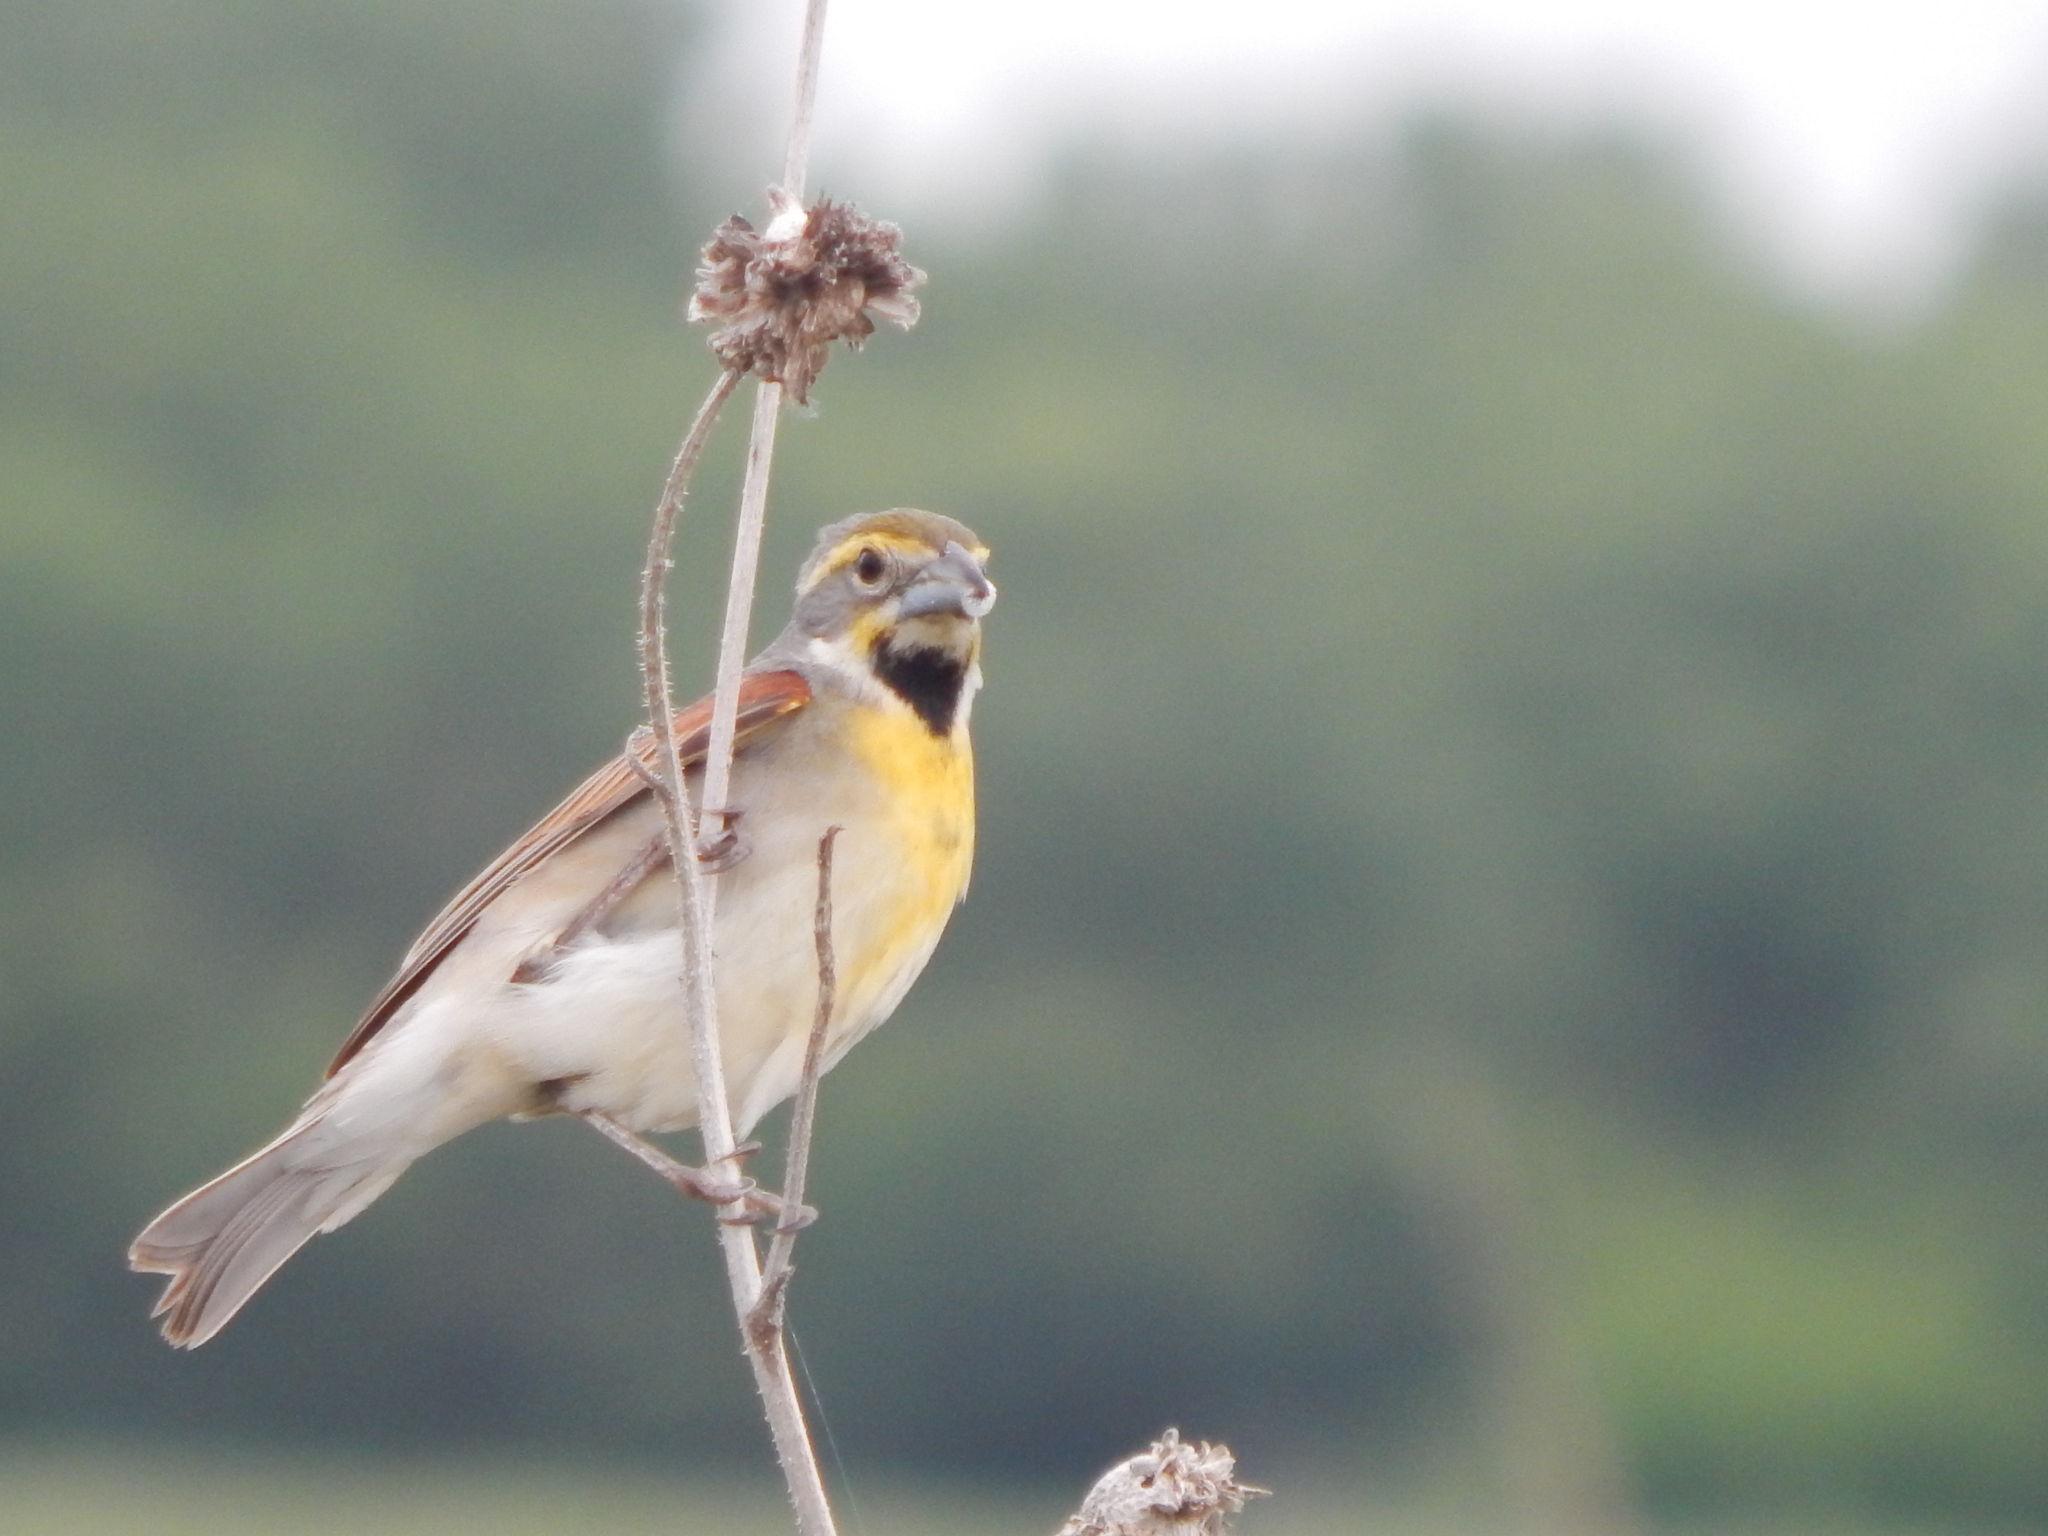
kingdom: Animalia
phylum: Chordata
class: Aves
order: Passeriformes
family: Cardinalidae
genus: Spiza
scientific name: Spiza americana
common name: Dickcissel
